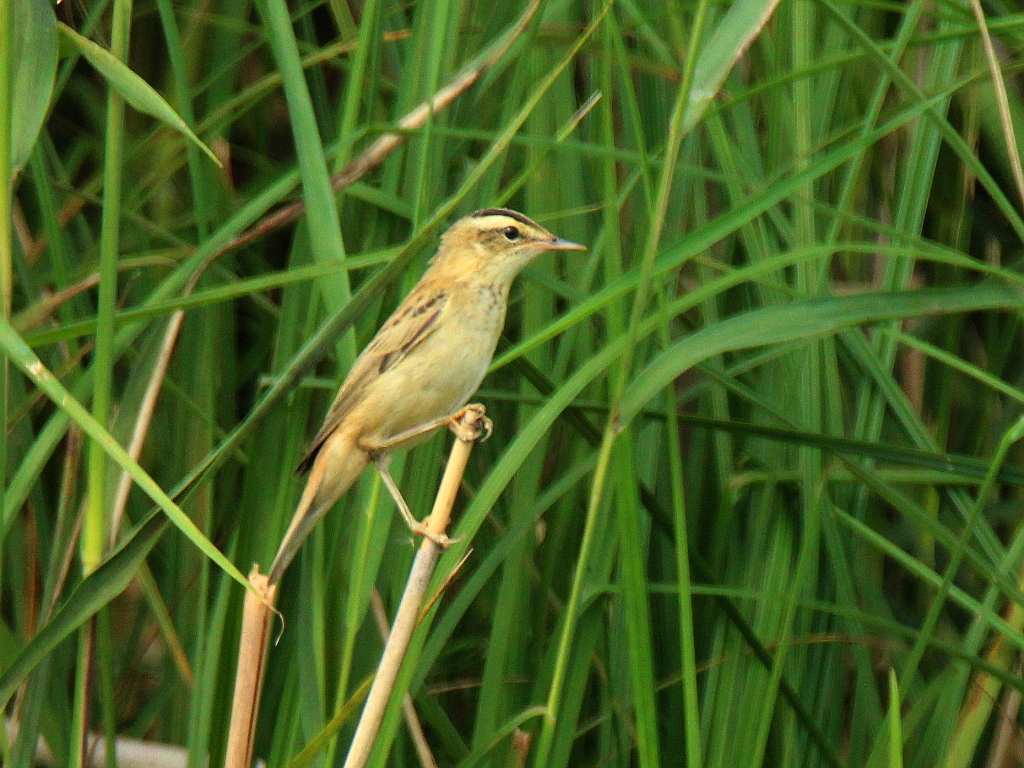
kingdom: Animalia
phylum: Chordata
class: Aves
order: Passeriformes
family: Acrocephalidae
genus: Acrocephalus
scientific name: Acrocephalus schoenobaenus
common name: Sedge warbler
